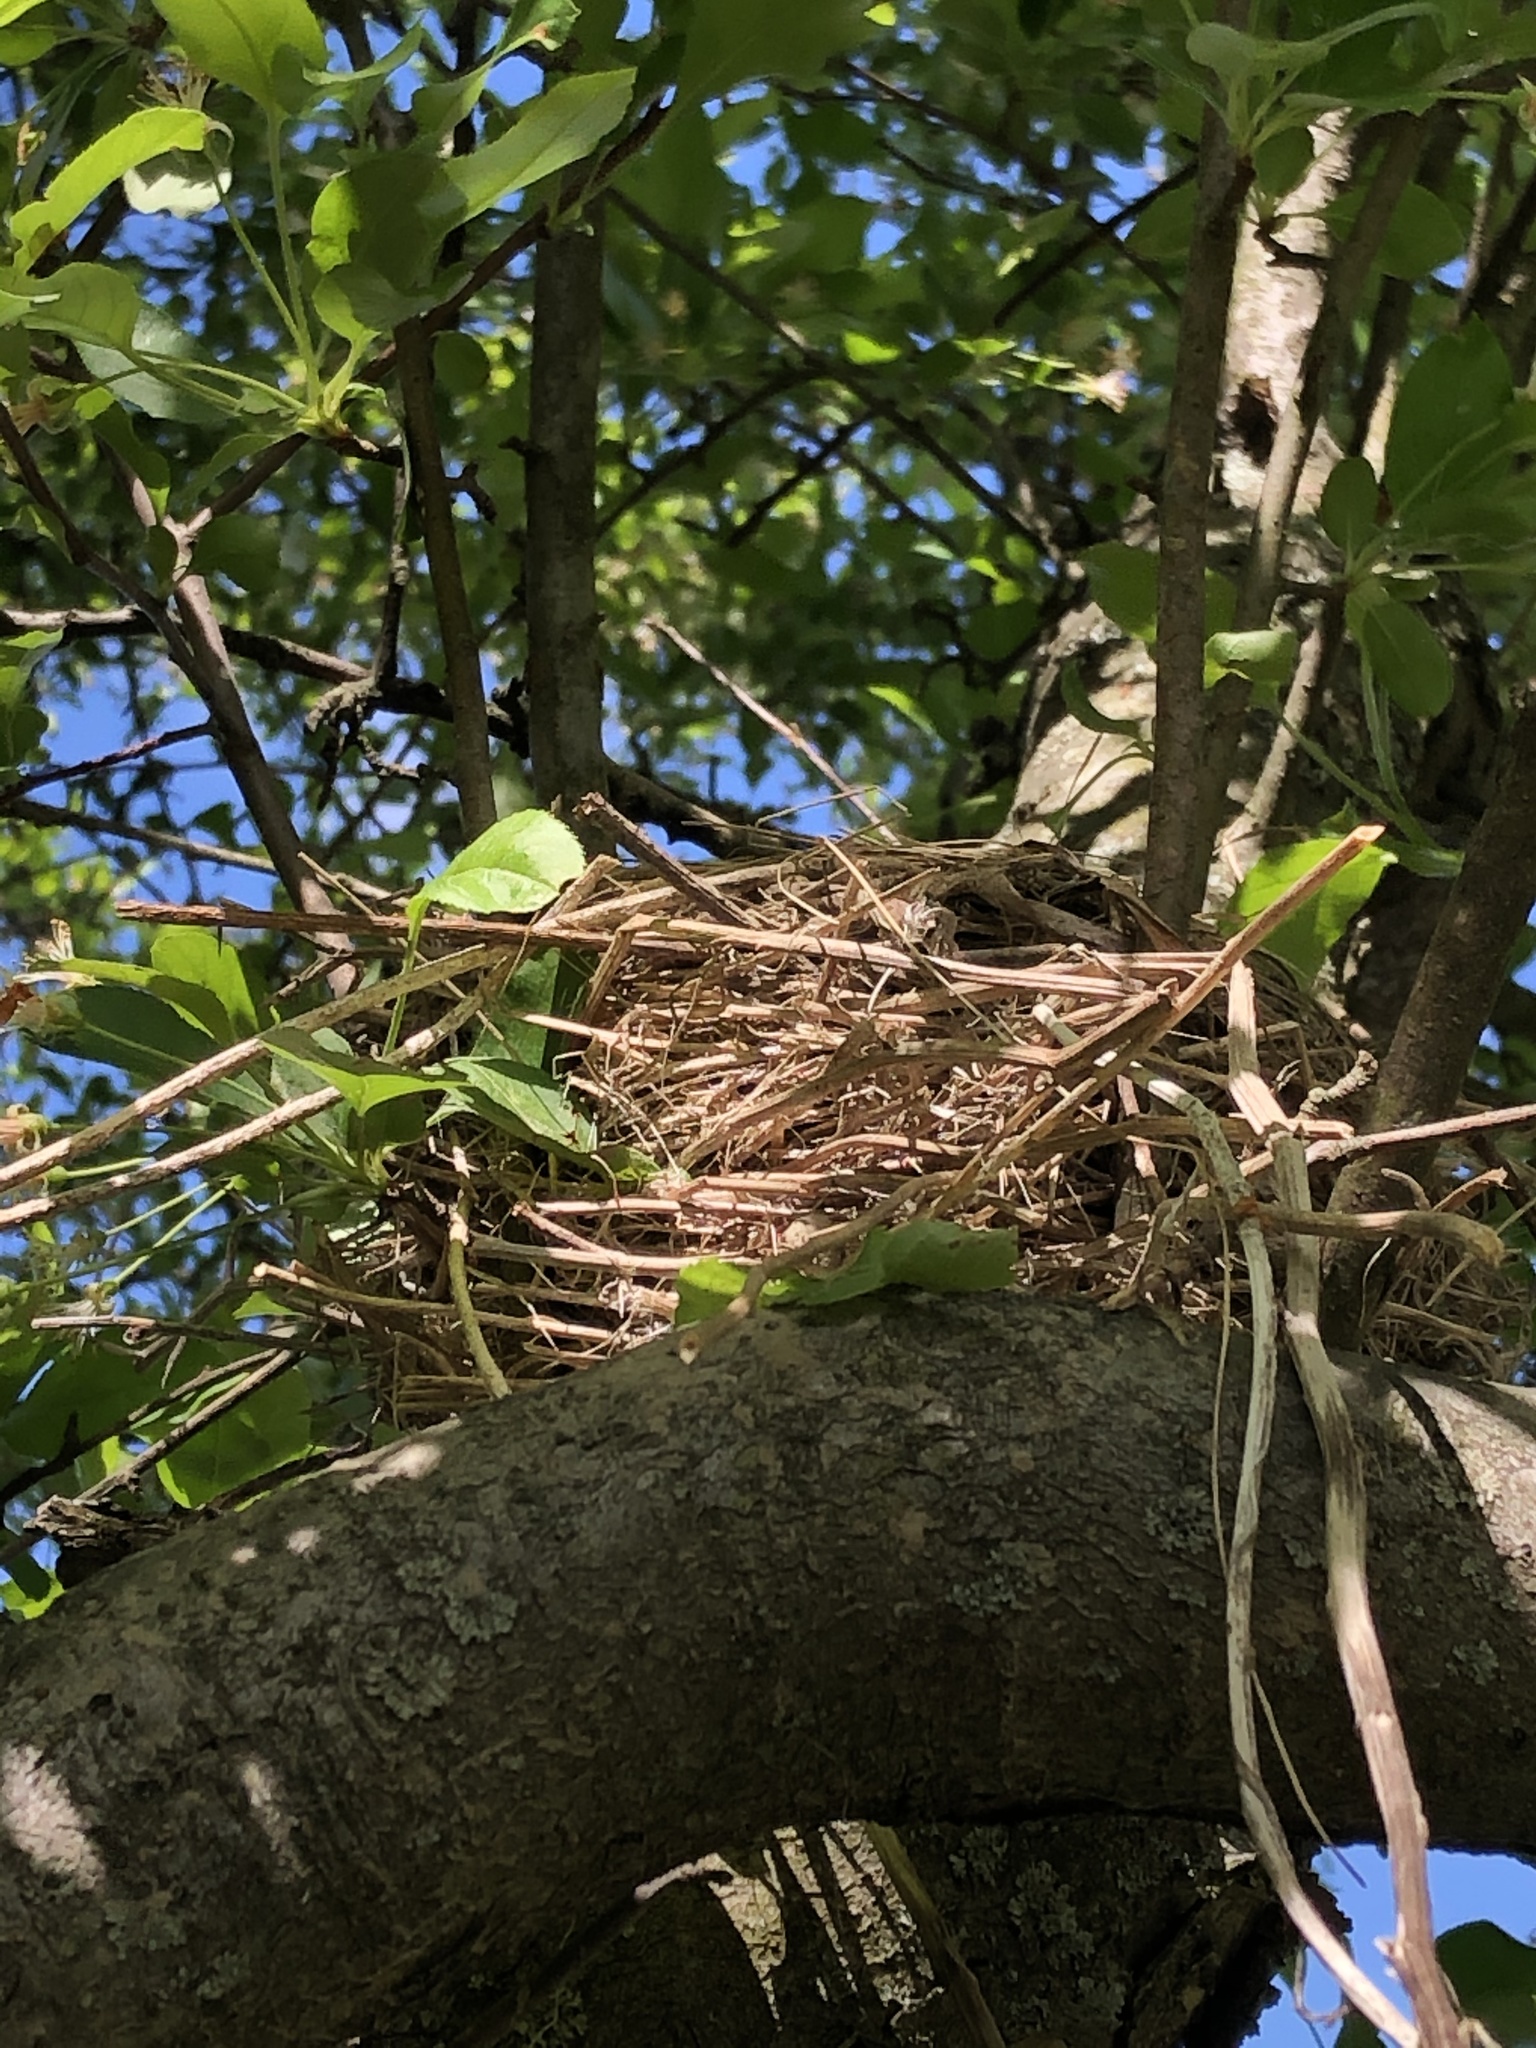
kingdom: Animalia
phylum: Chordata
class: Aves
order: Passeriformes
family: Turdidae
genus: Turdus
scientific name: Turdus migratorius
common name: American robin
